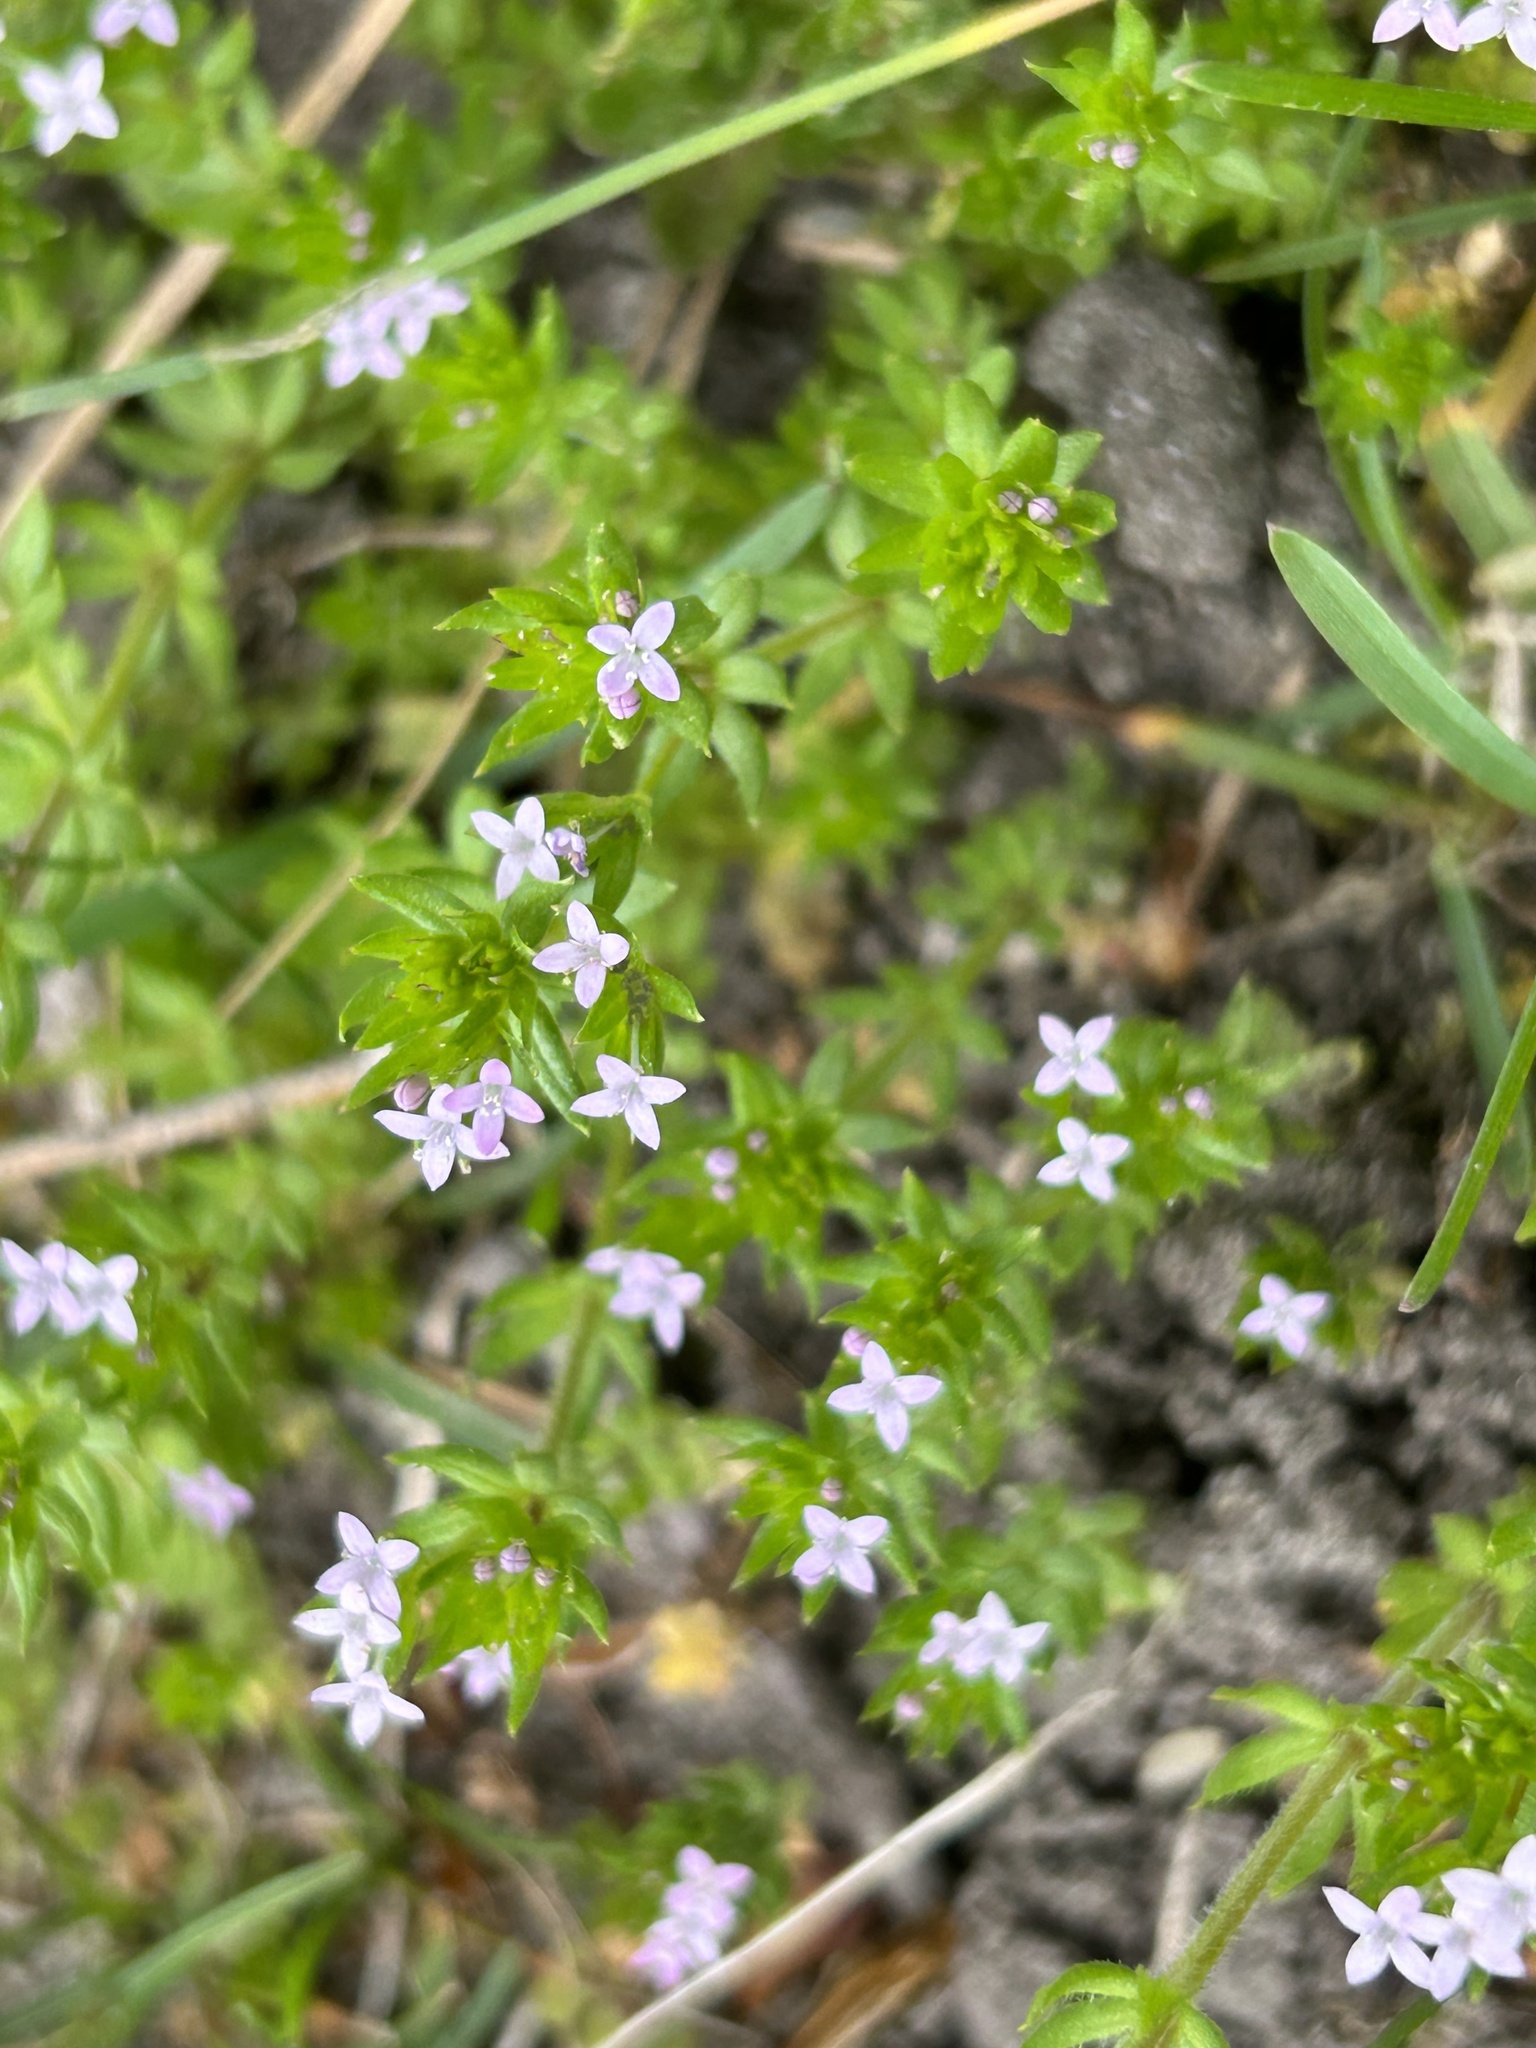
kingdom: Plantae
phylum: Tracheophyta
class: Magnoliopsida
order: Gentianales
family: Rubiaceae
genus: Sherardia
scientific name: Sherardia arvensis
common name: Field madder
